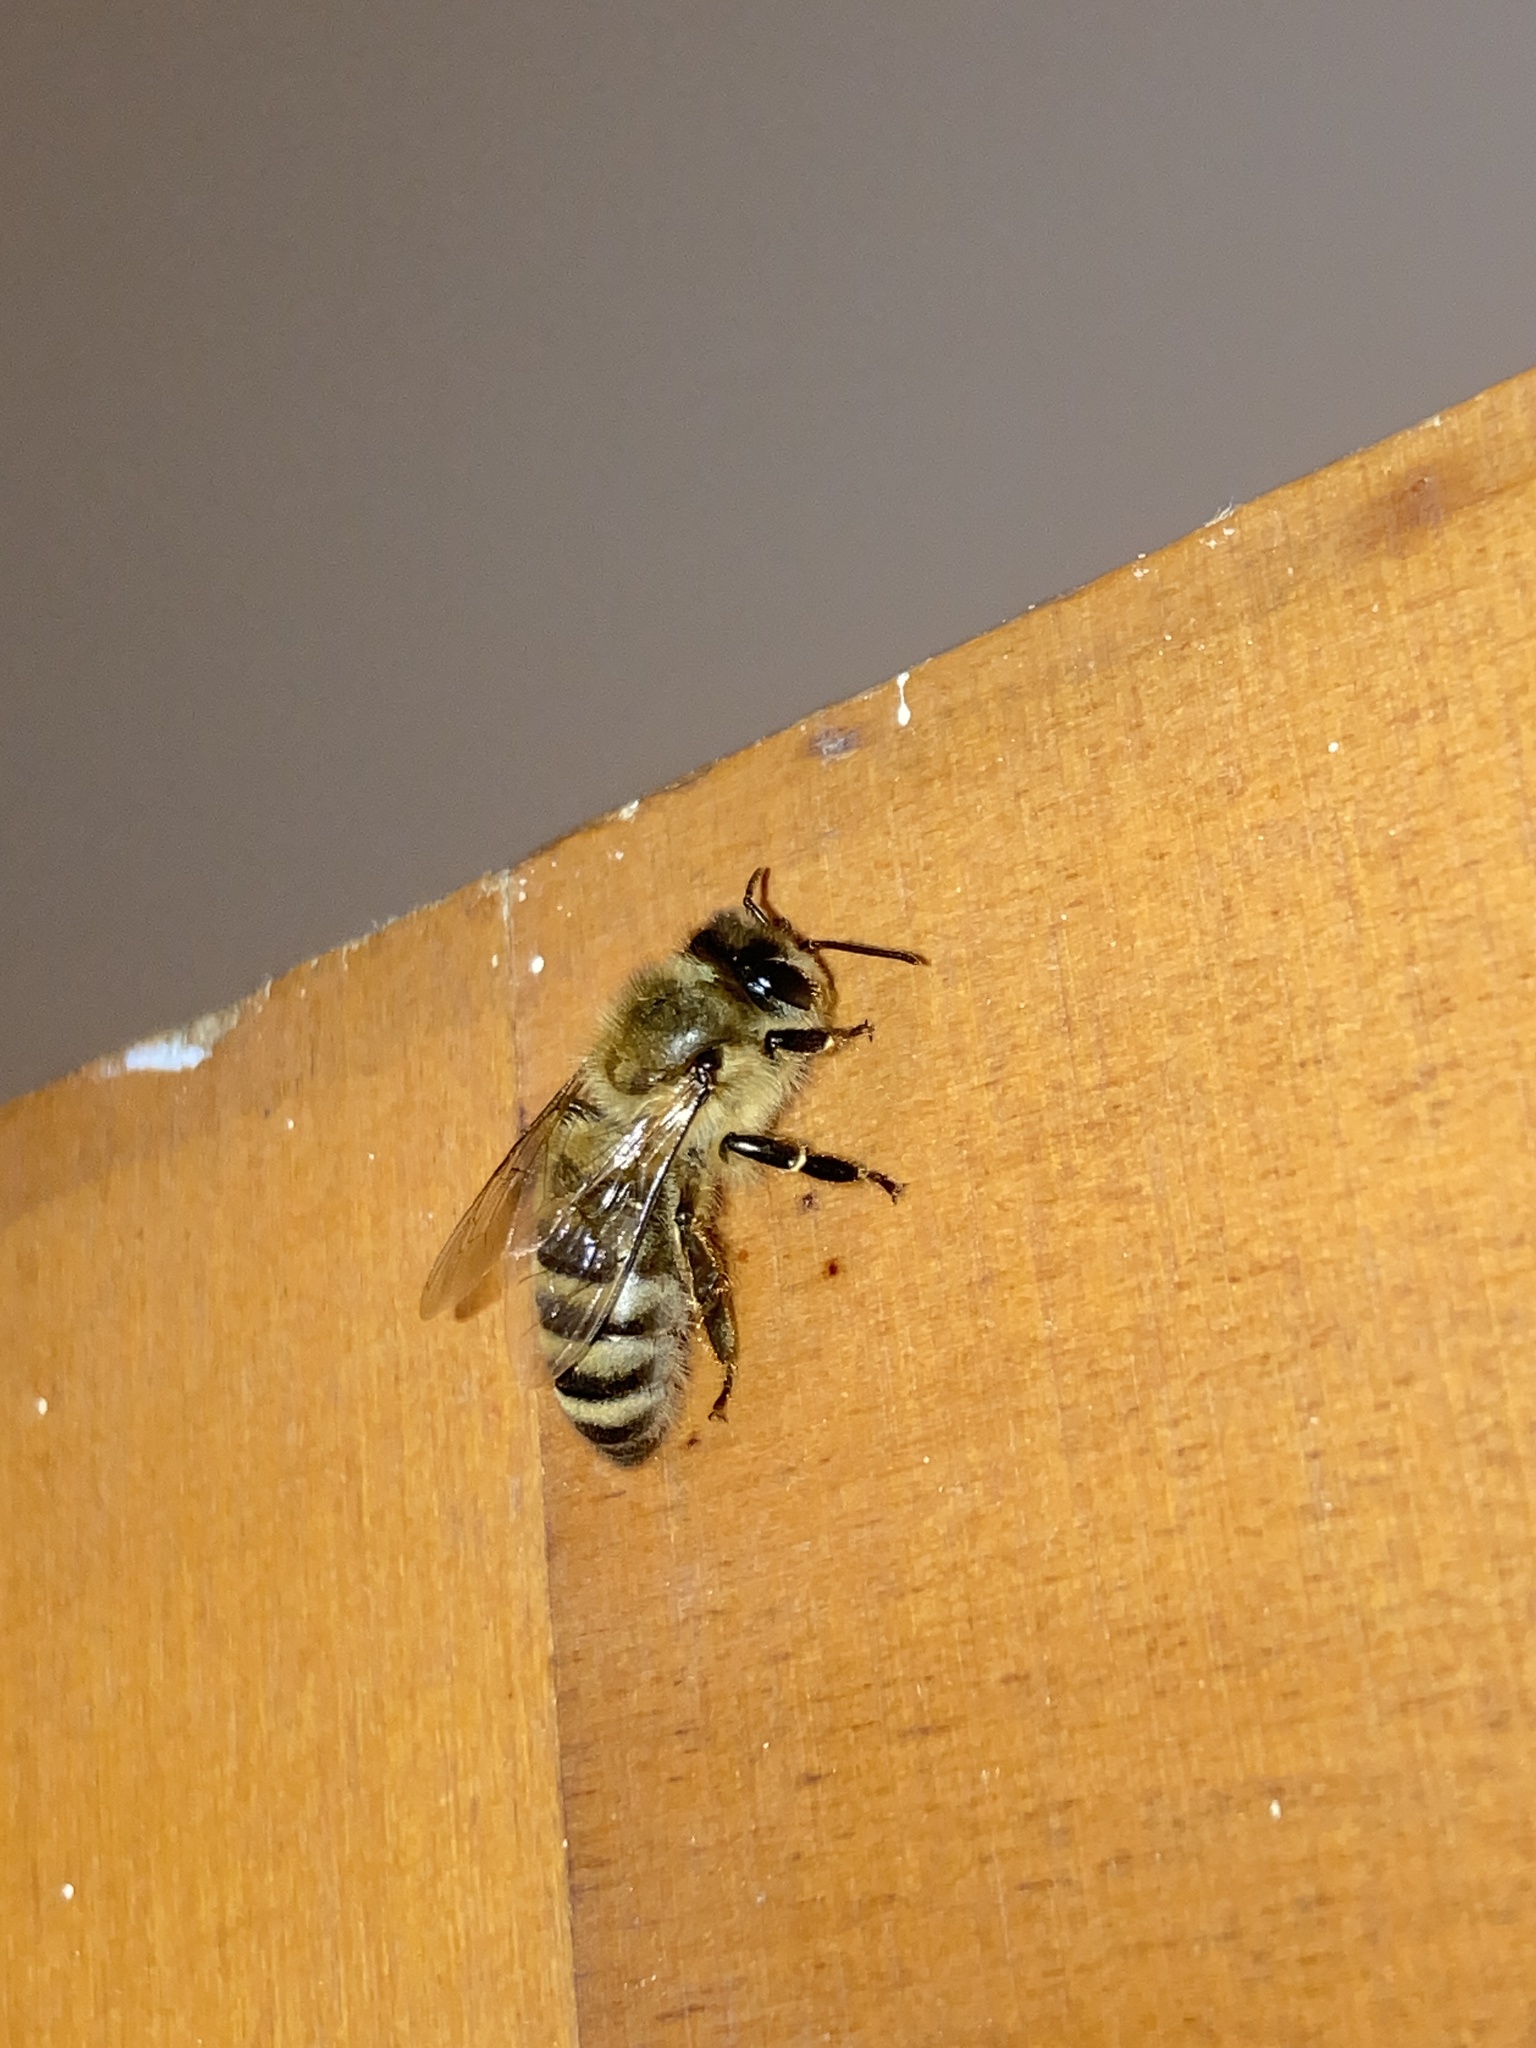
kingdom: Animalia
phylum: Arthropoda
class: Insecta
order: Hymenoptera
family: Apidae
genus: Apis
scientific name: Apis mellifera
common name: Honey bee
